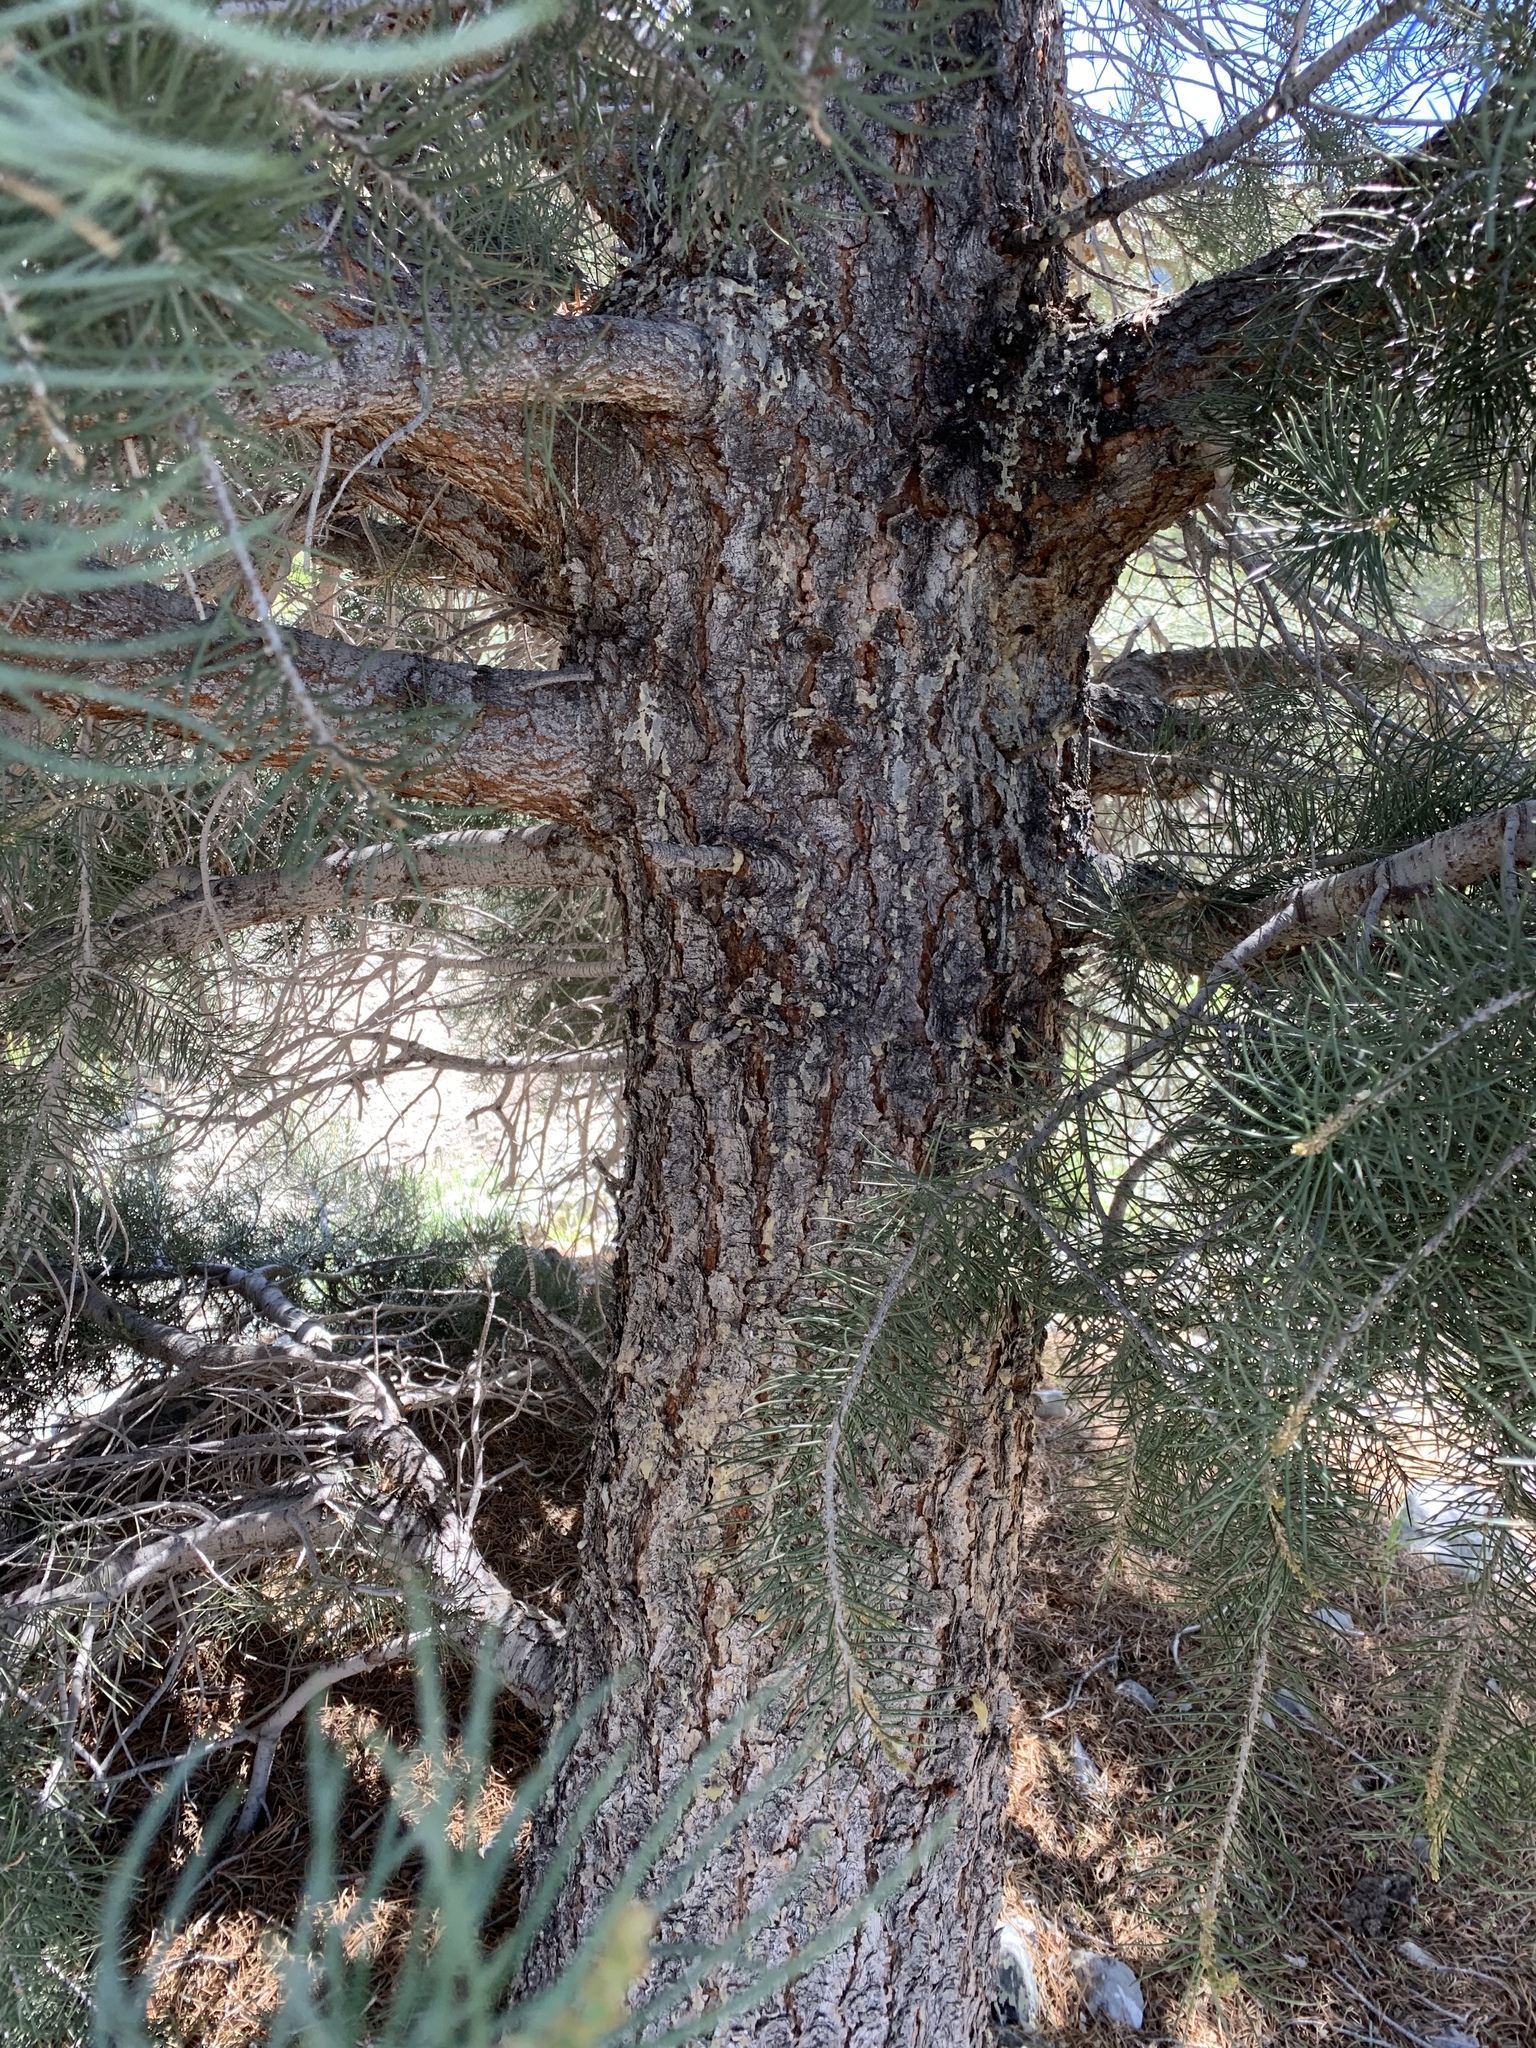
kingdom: Plantae
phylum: Tracheophyta
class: Pinopsida
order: Pinales
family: Pinaceae
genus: Pinus
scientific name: Pinus monophylla
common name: One-leaved nut pine
